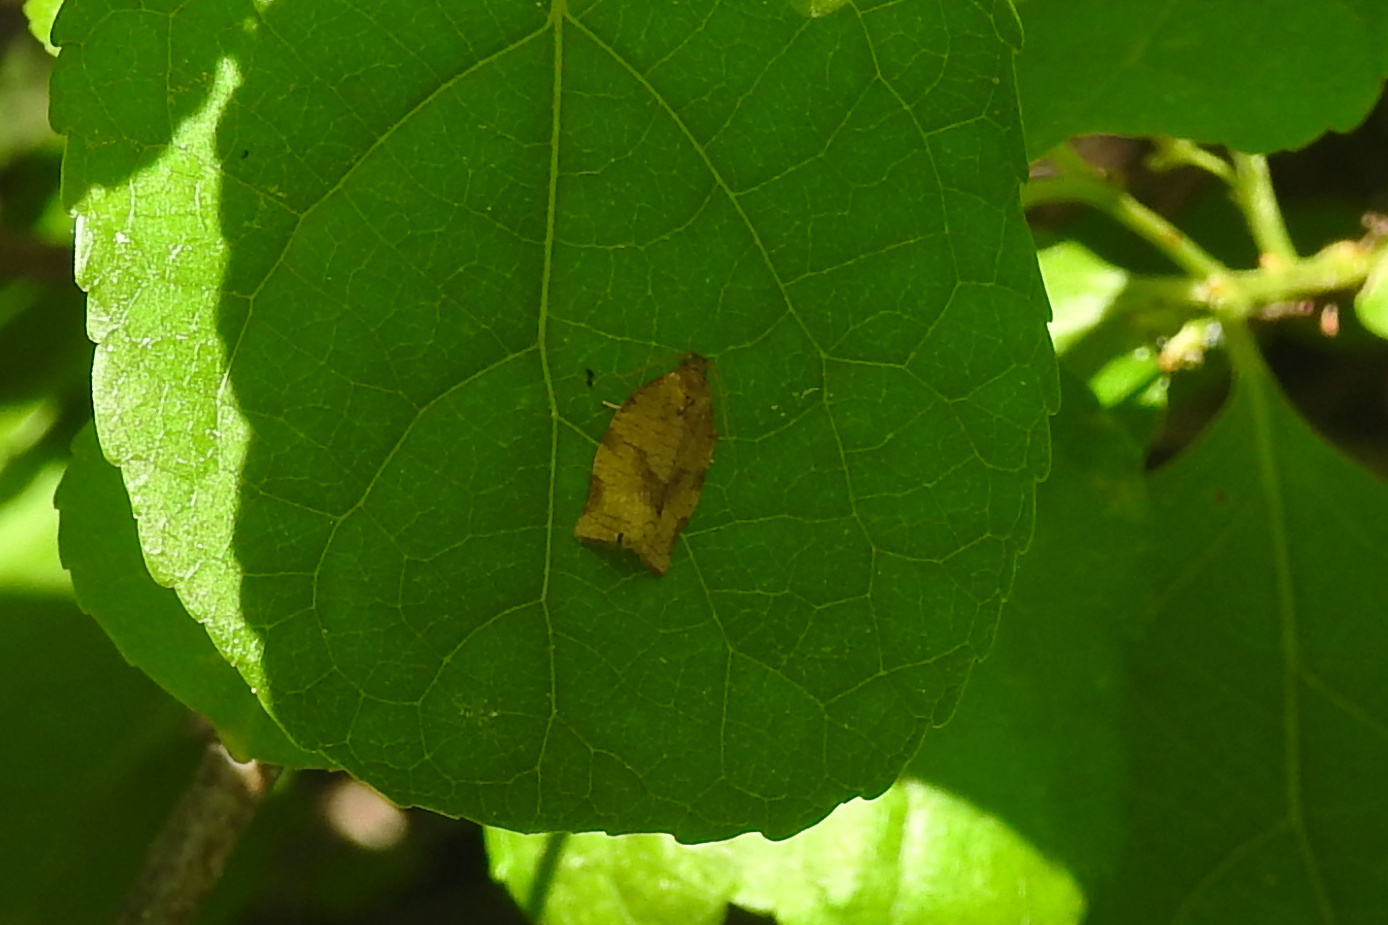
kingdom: Animalia
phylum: Arthropoda
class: Insecta
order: Lepidoptera
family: Tortricidae
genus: Choristoneura
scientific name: Choristoneura rosaceana
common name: Oblique-banded leafroller moth
